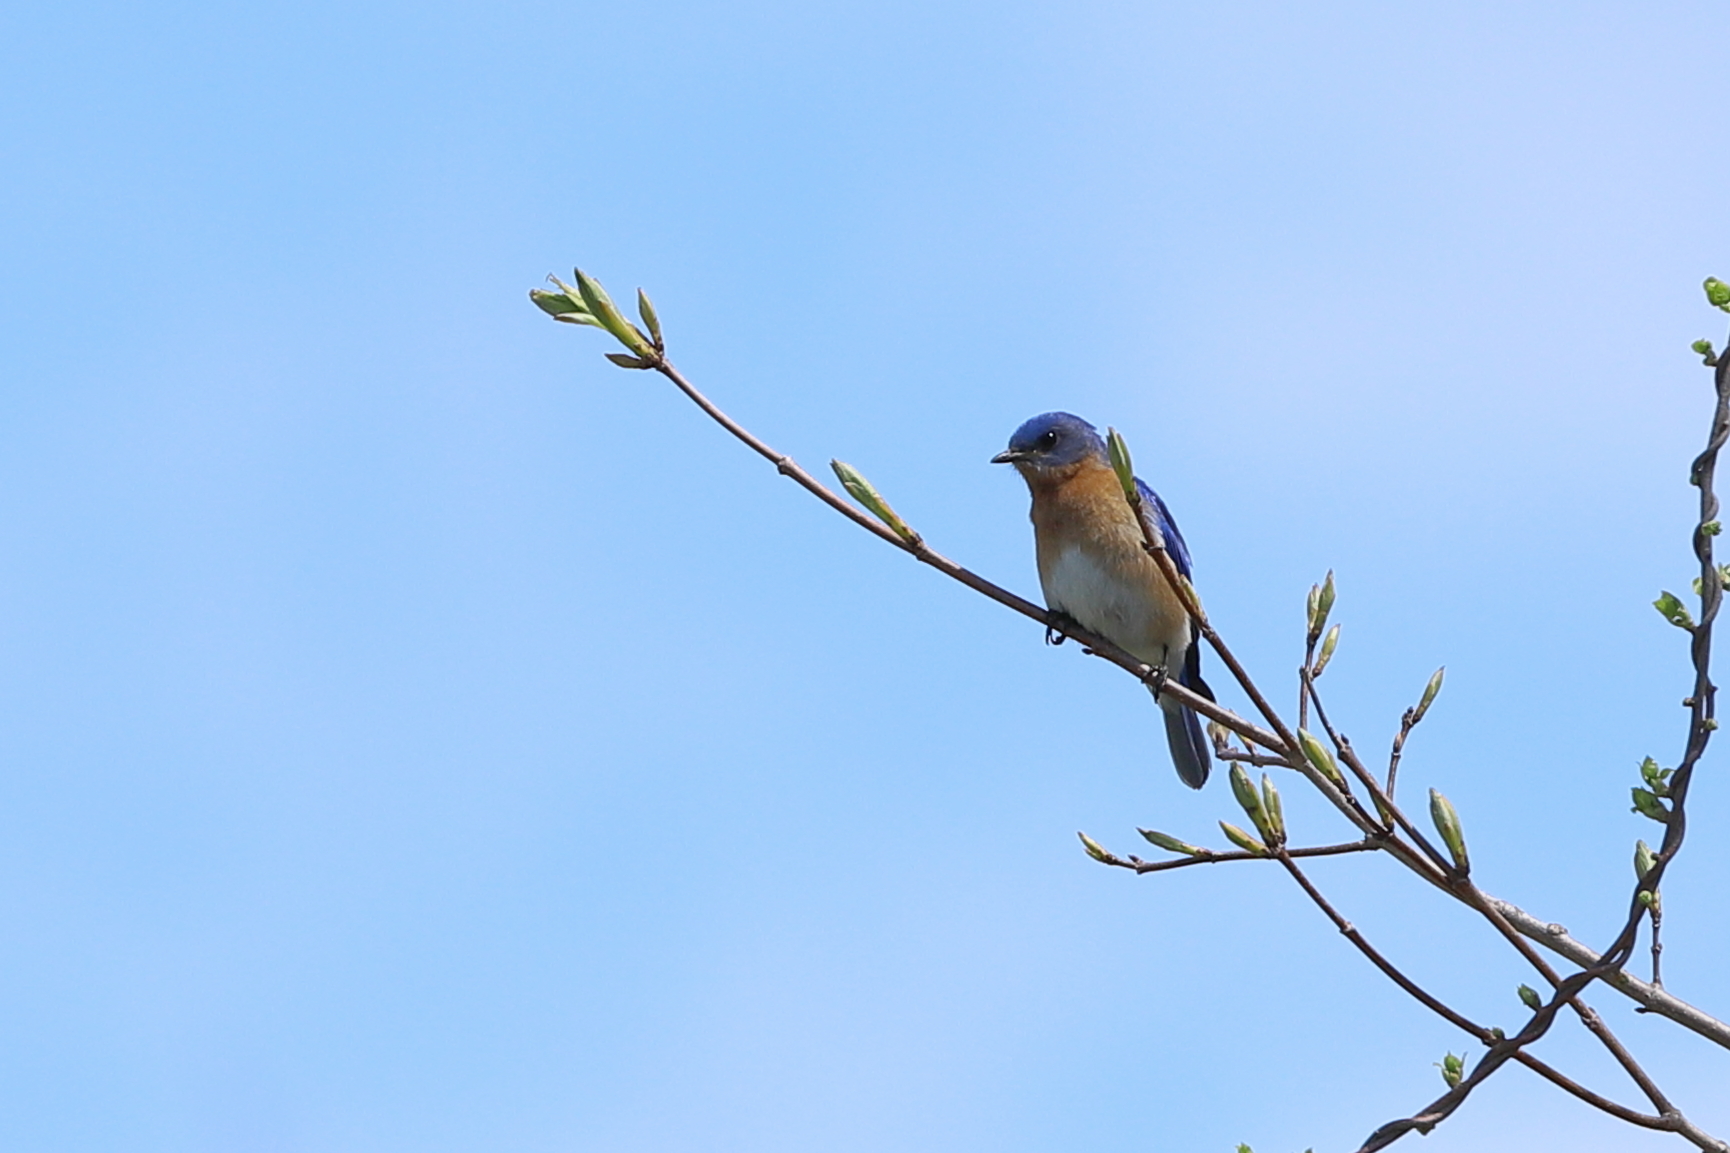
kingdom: Animalia
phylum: Chordata
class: Aves
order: Passeriformes
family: Turdidae
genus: Sialia
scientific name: Sialia sialis
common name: Eastern bluebird
